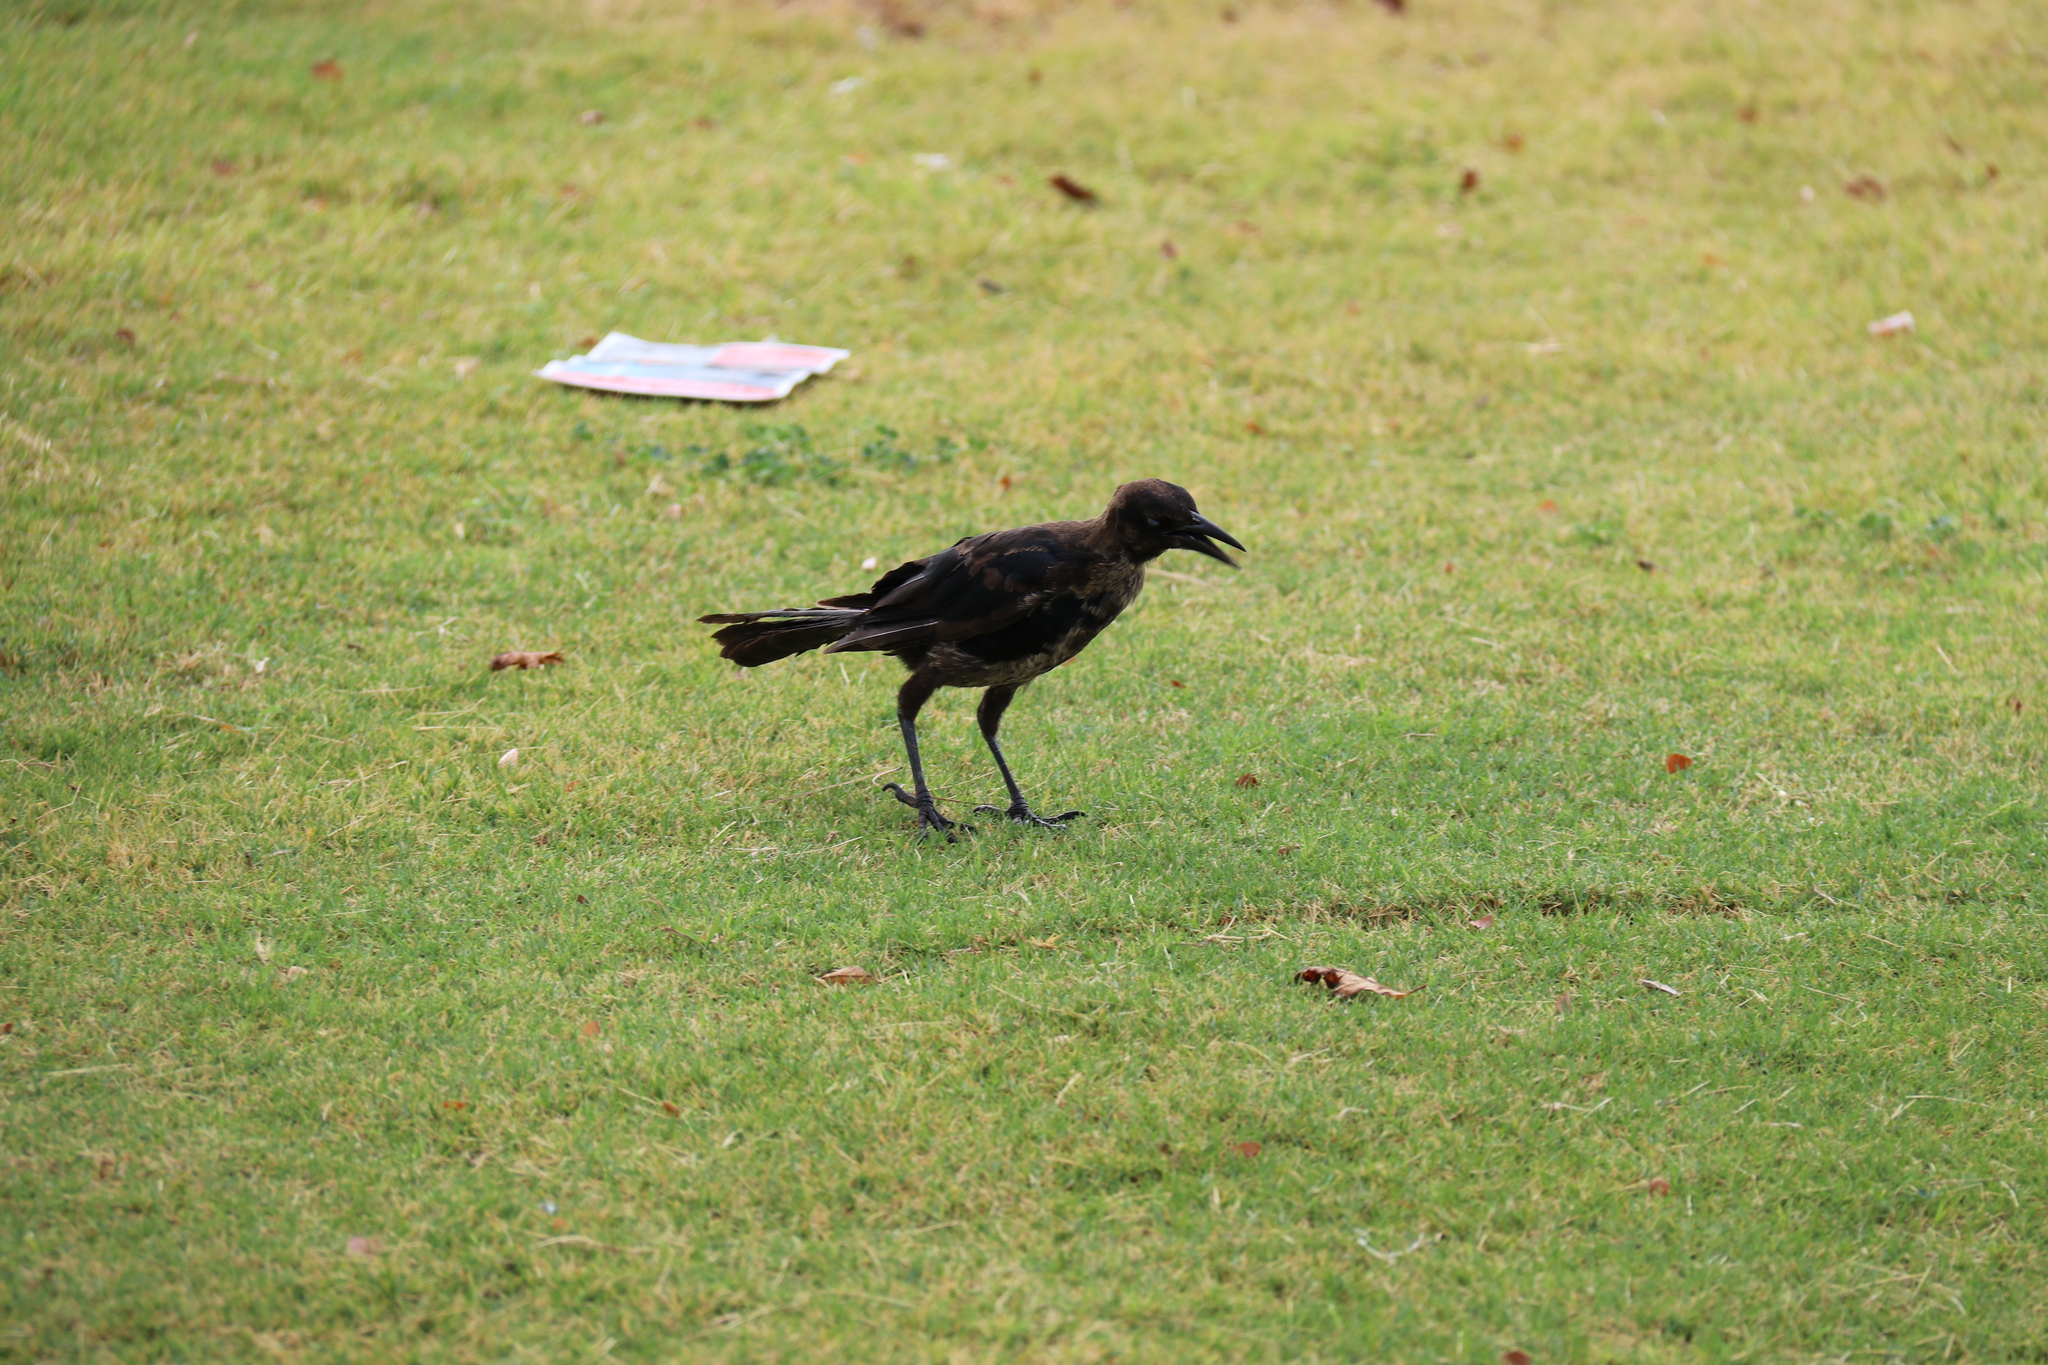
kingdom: Animalia
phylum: Chordata
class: Aves
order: Passeriformes
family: Icteridae
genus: Quiscalus
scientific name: Quiscalus mexicanus
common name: Great-tailed grackle
